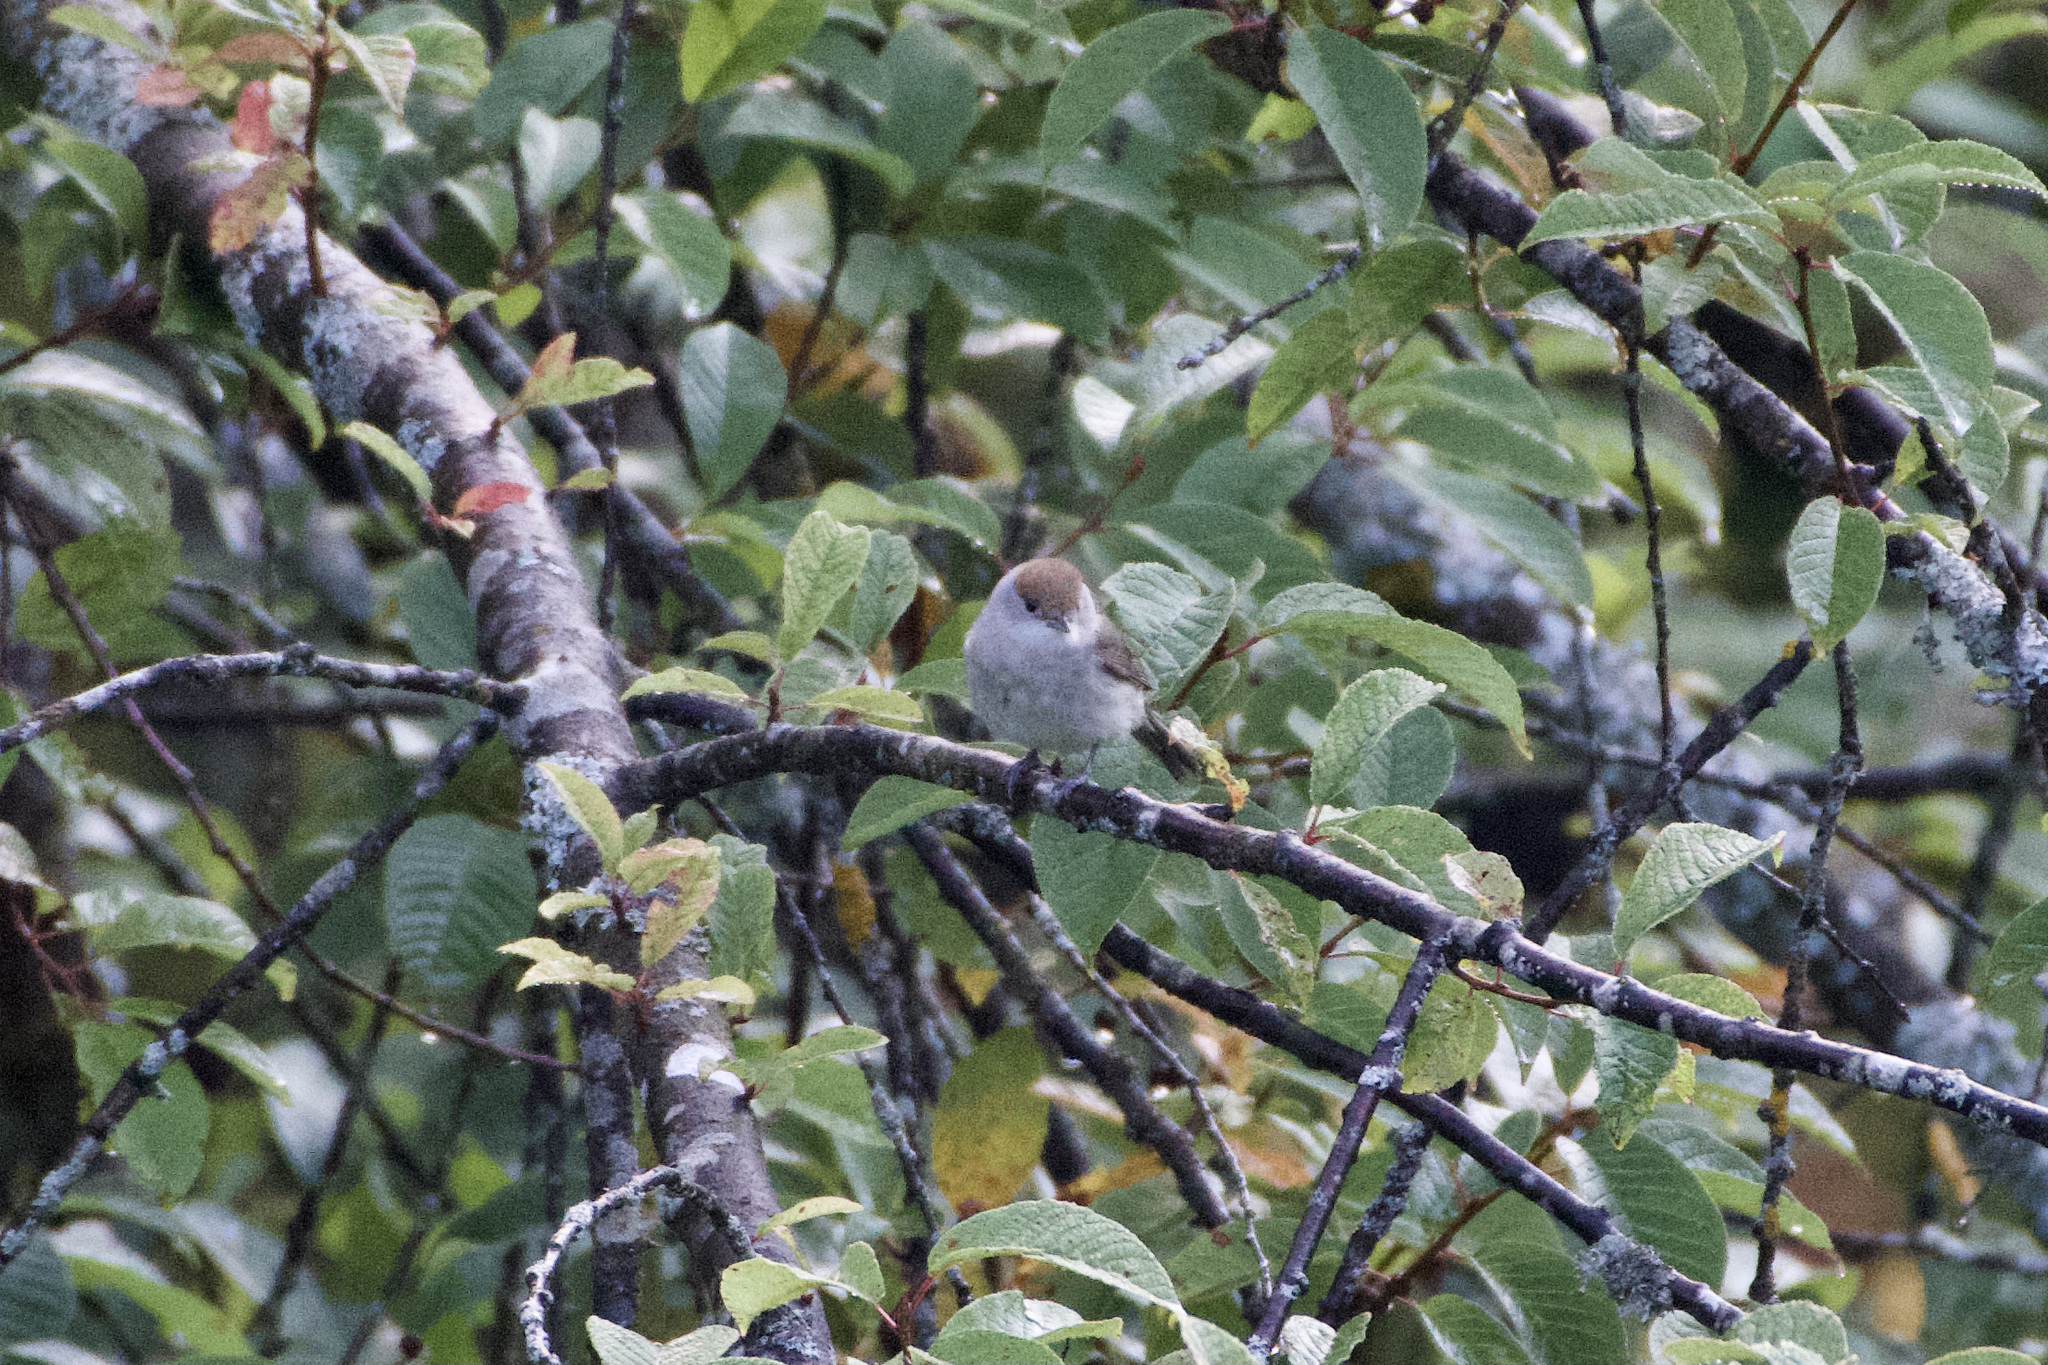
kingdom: Animalia
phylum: Chordata
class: Aves
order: Passeriformes
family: Sylviidae
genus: Sylvia
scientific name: Sylvia atricapilla
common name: Eurasian blackcap
